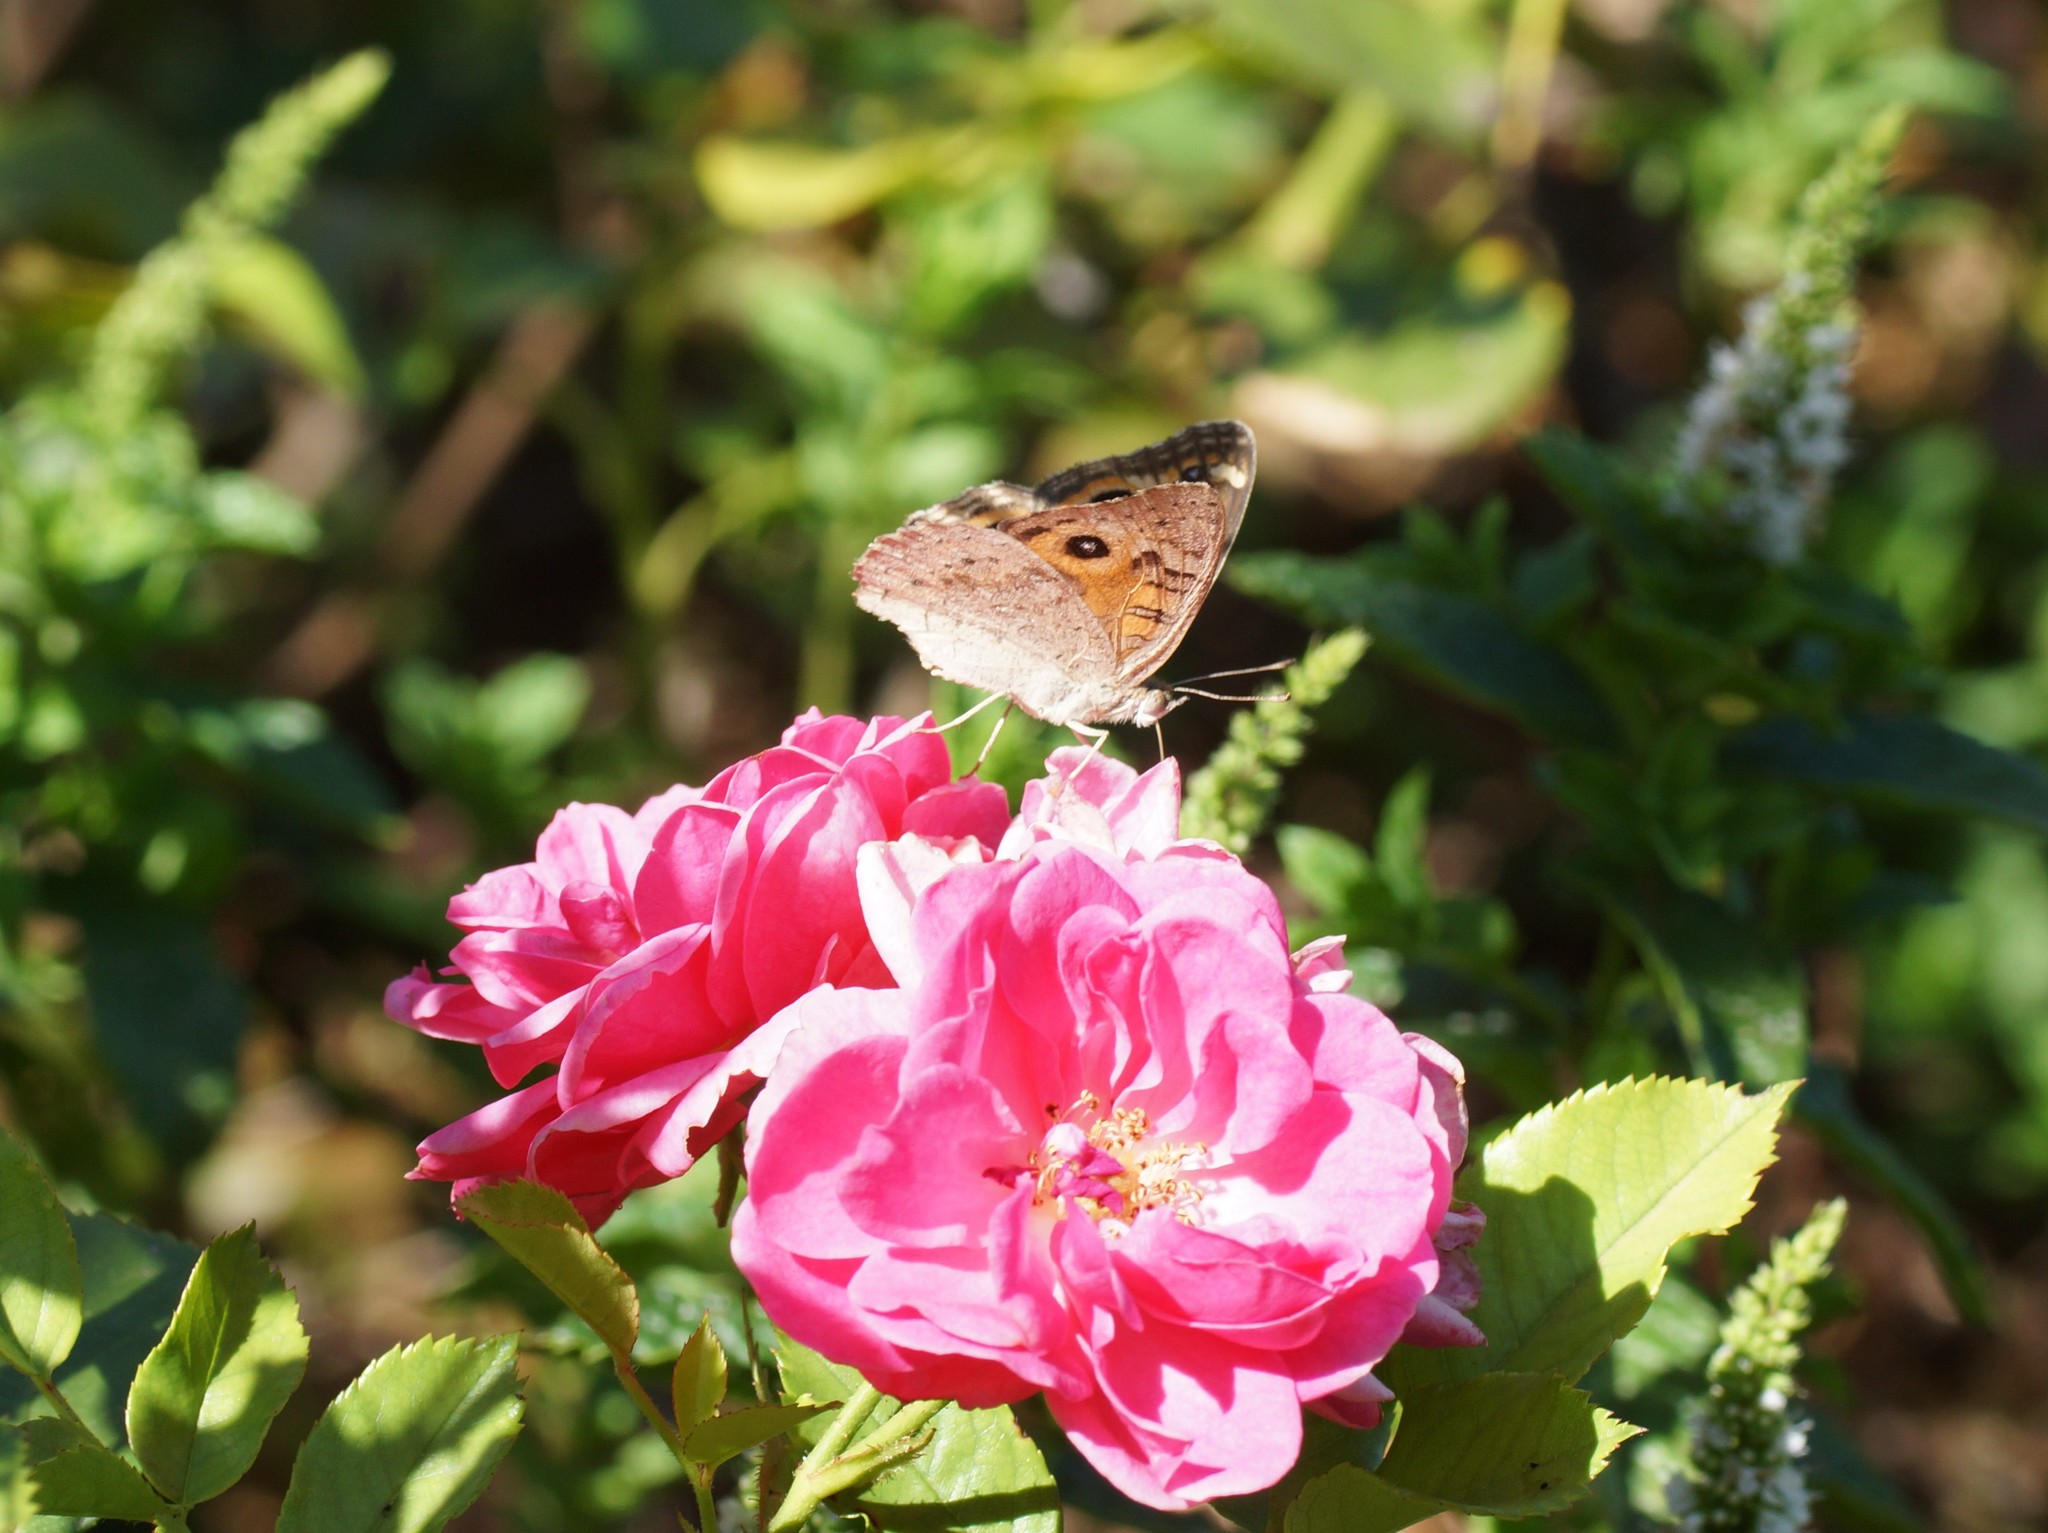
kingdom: Animalia
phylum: Arthropoda
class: Insecta
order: Lepidoptera
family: Nymphalidae
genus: Junonia
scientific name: Junonia villida
